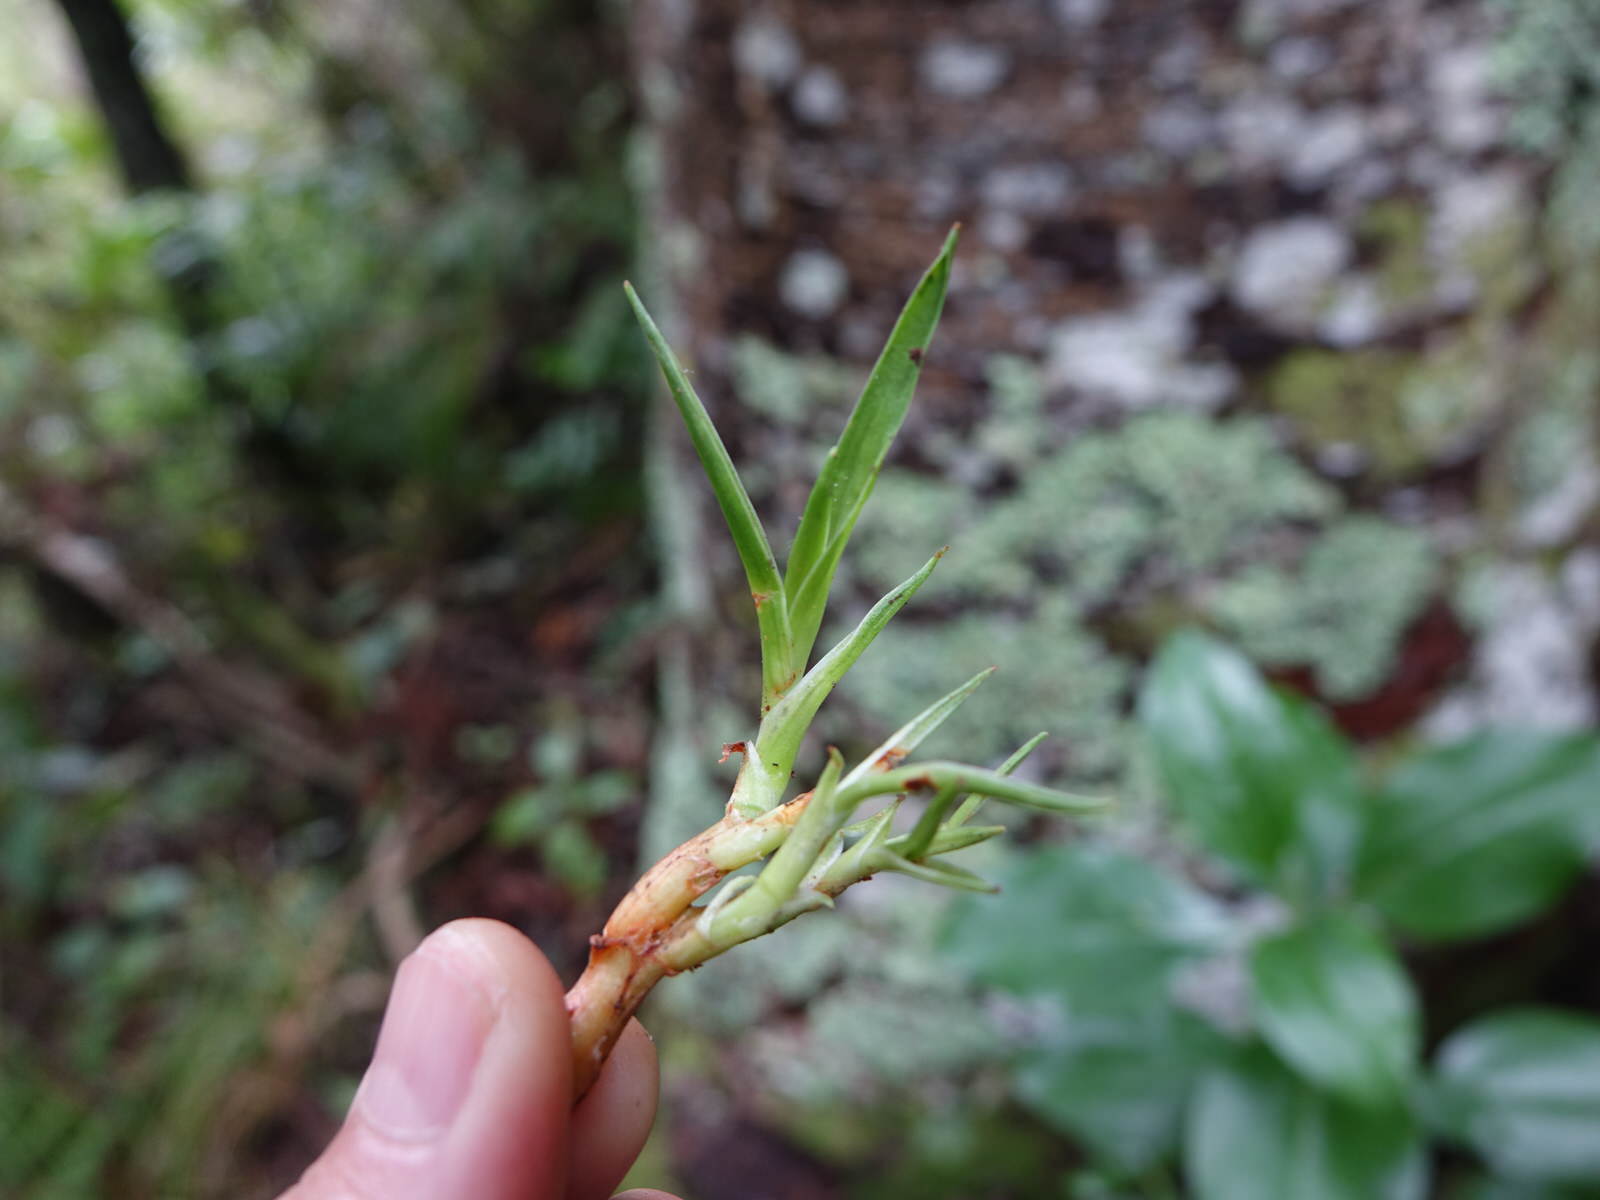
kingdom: Plantae
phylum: Tracheophyta
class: Liliopsida
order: Asparagales
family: Asparagaceae
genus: Dracaena
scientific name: Dracaena draco
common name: Canary island dragon tree
